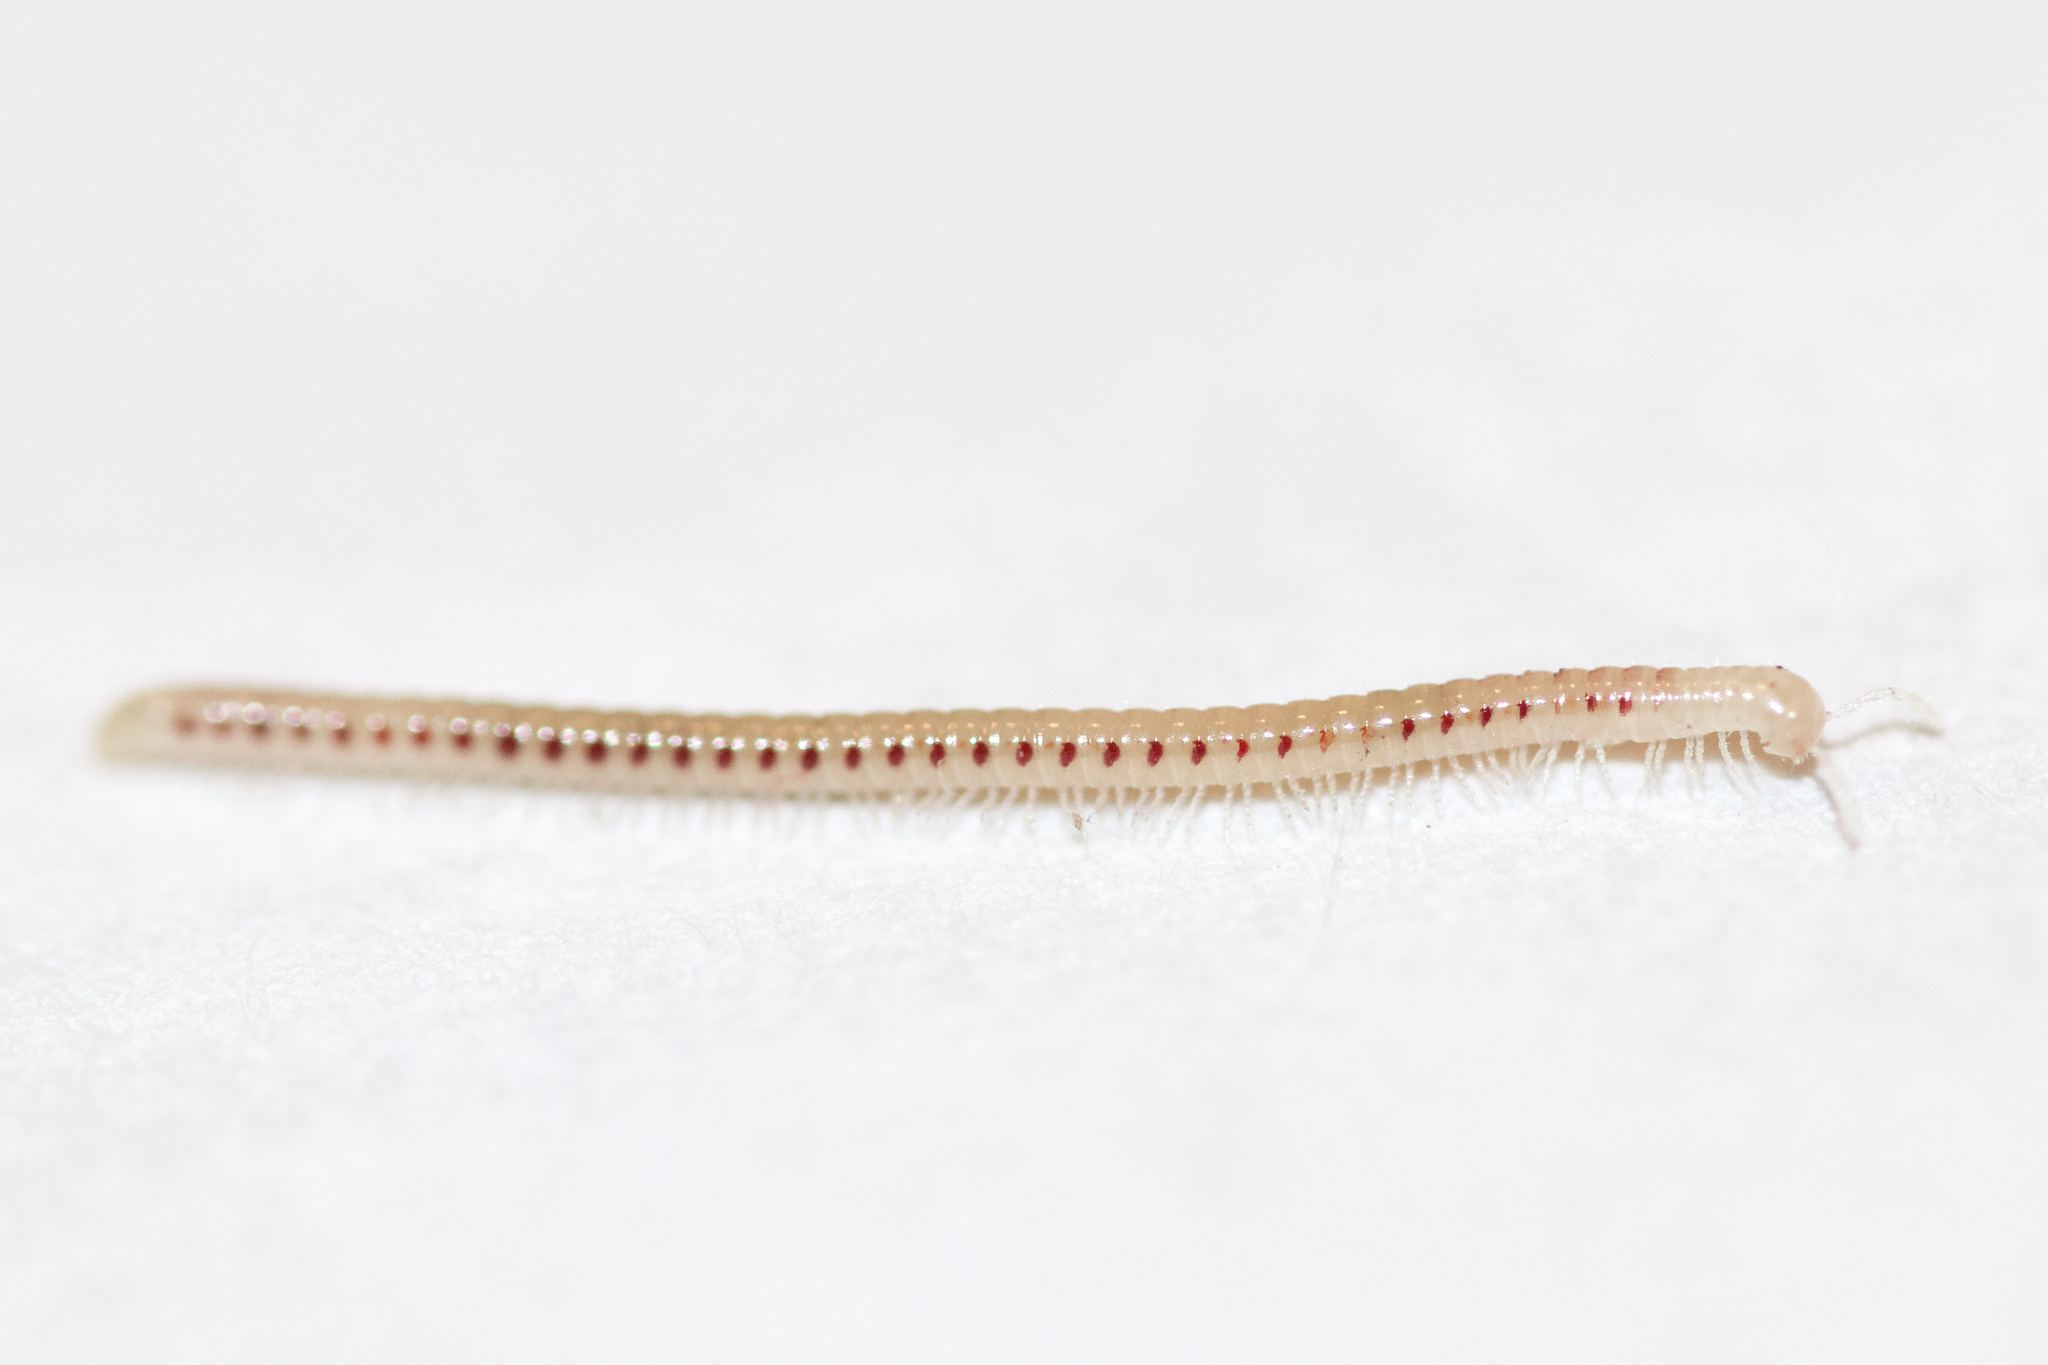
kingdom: Animalia
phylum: Arthropoda
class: Diplopoda
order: Julida
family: Blaniulidae
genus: Blaniulus
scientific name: Blaniulus guttulatus
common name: Spotted snake millipede
